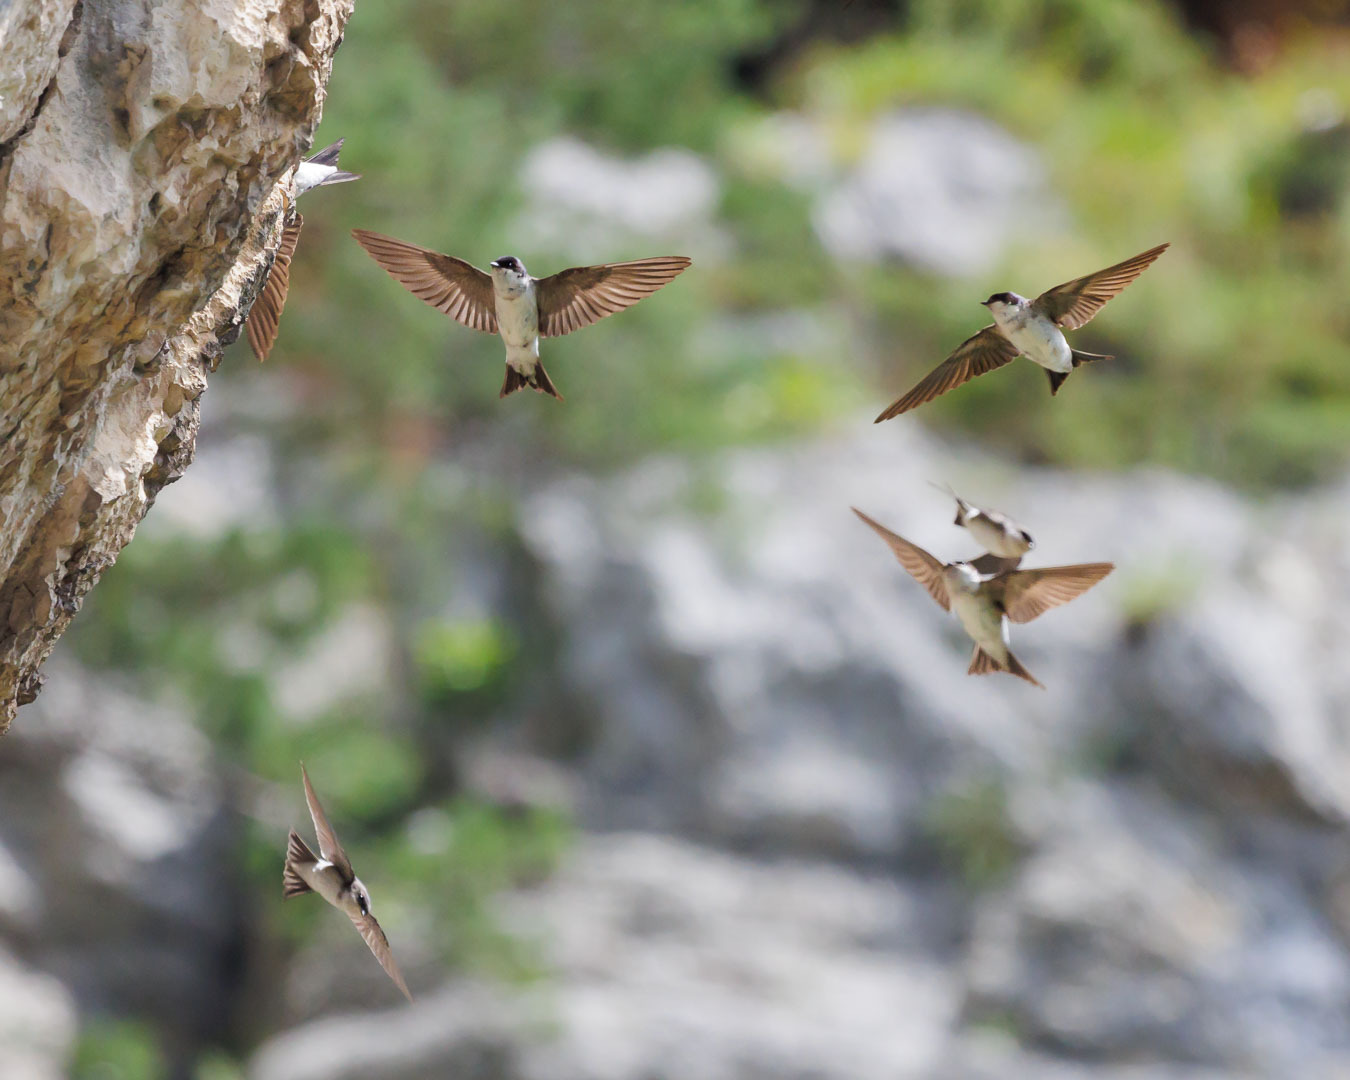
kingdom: Animalia
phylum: Chordata
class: Aves
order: Passeriformes
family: Hirundinidae
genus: Delichon
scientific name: Delichon urbicum
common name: Common house martin
